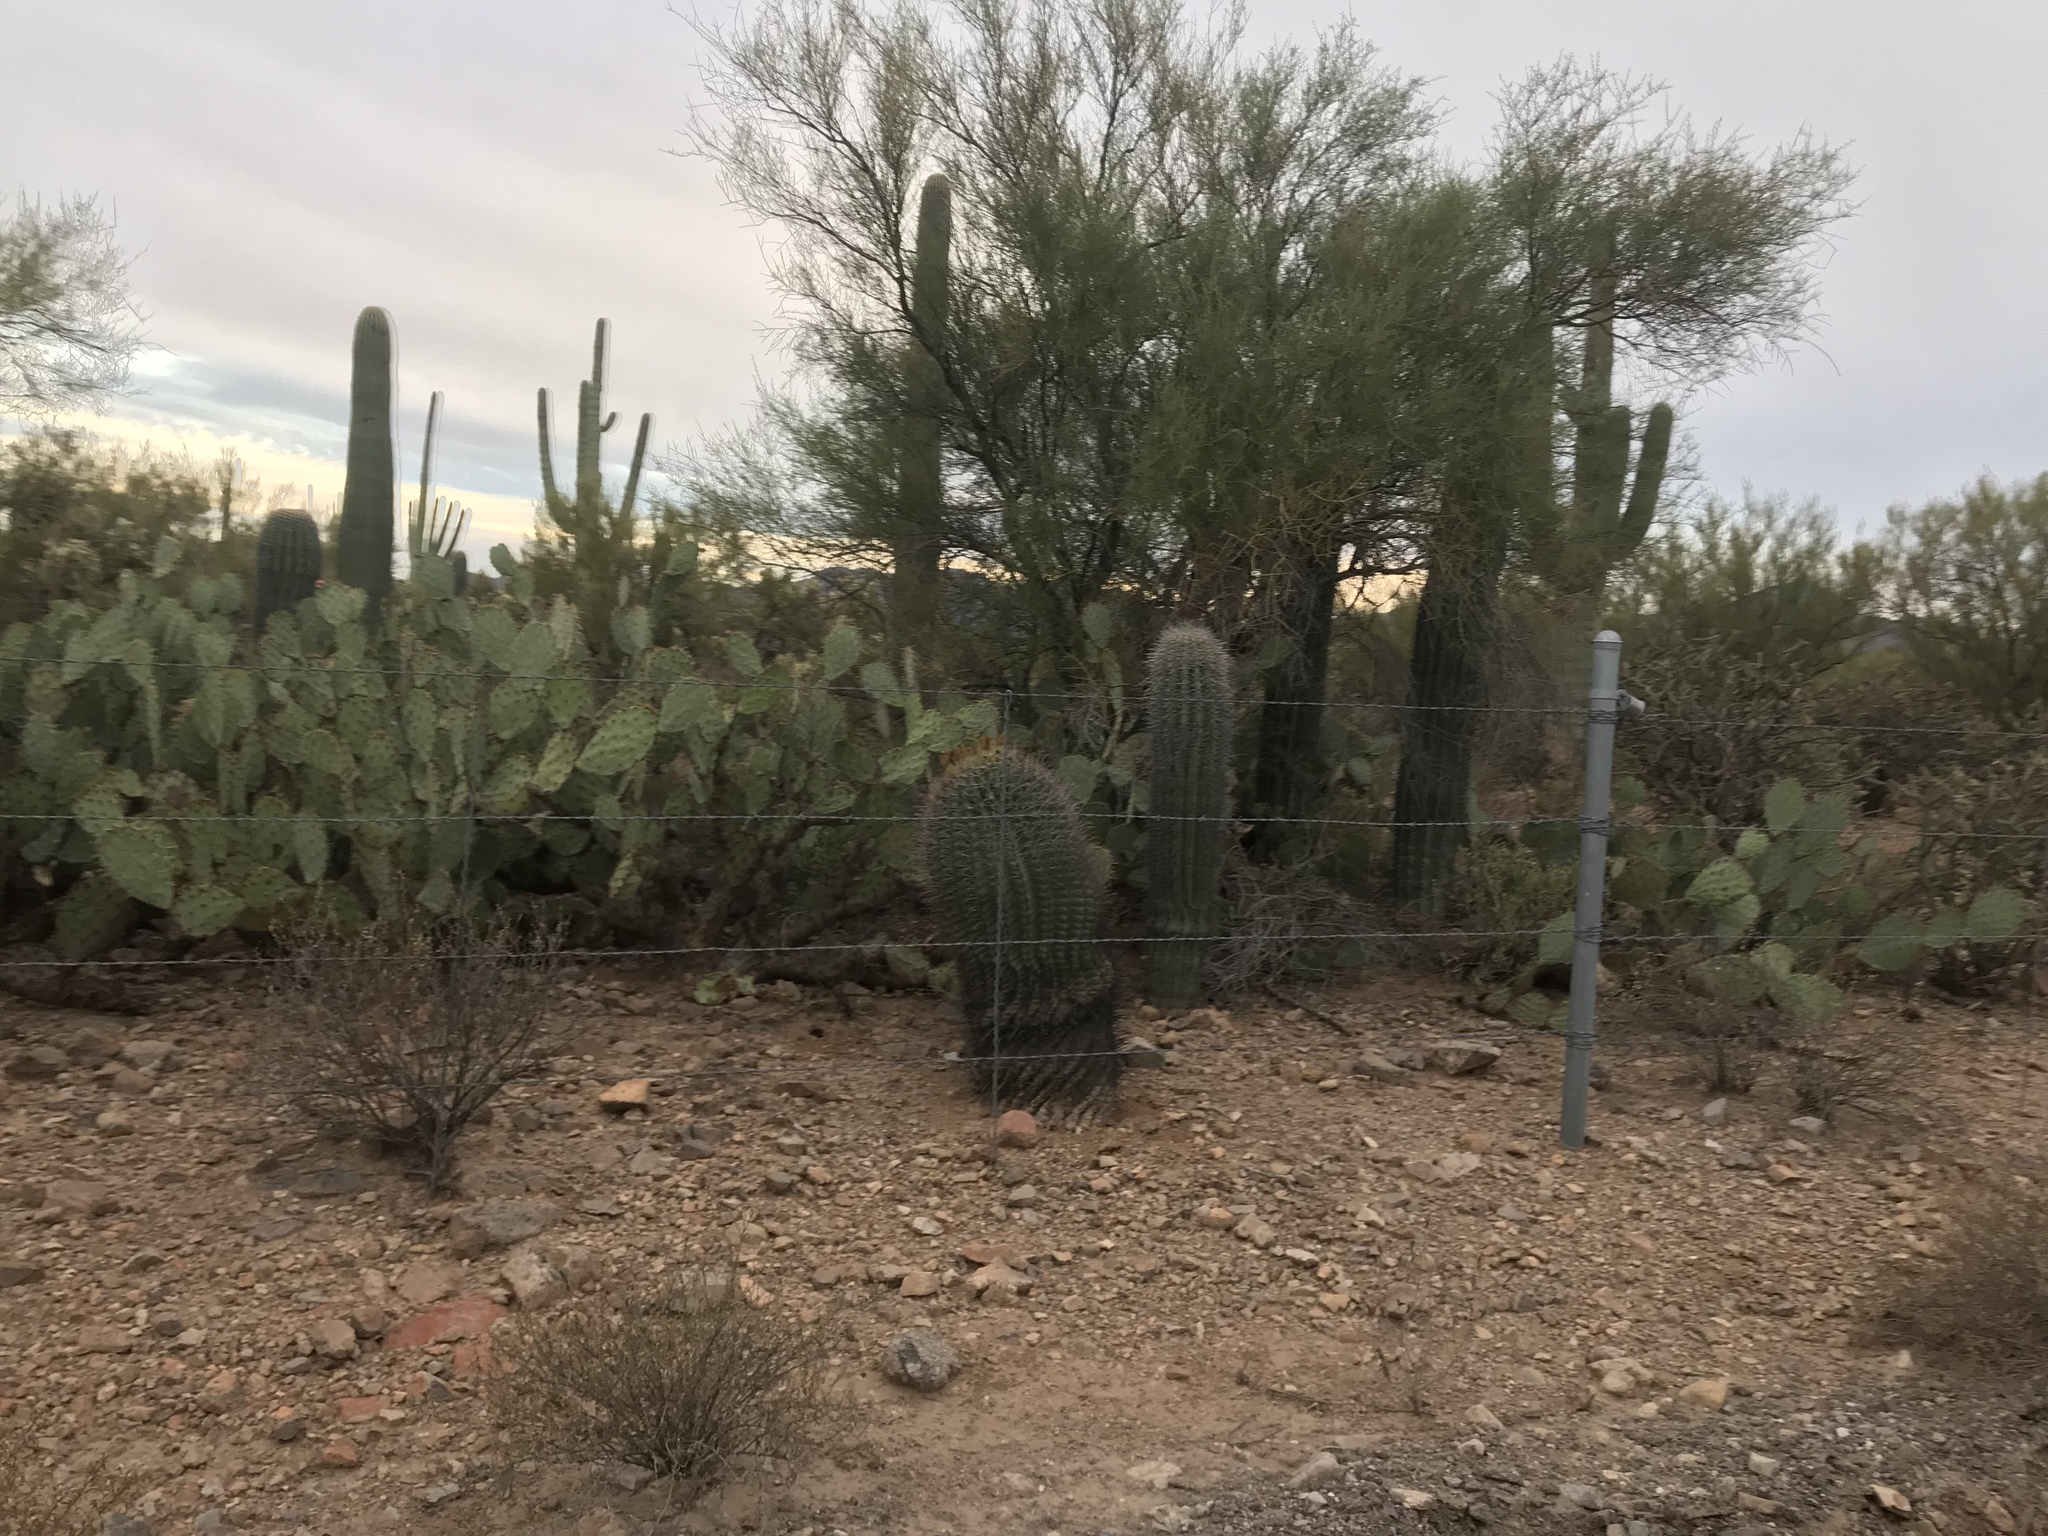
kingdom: Plantae
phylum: Tracheophyta
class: Magnoliopsida
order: Caryophyllales
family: Cactaceae
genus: Opuntia
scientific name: Opuntia engelmannii
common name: Cactus-apple
